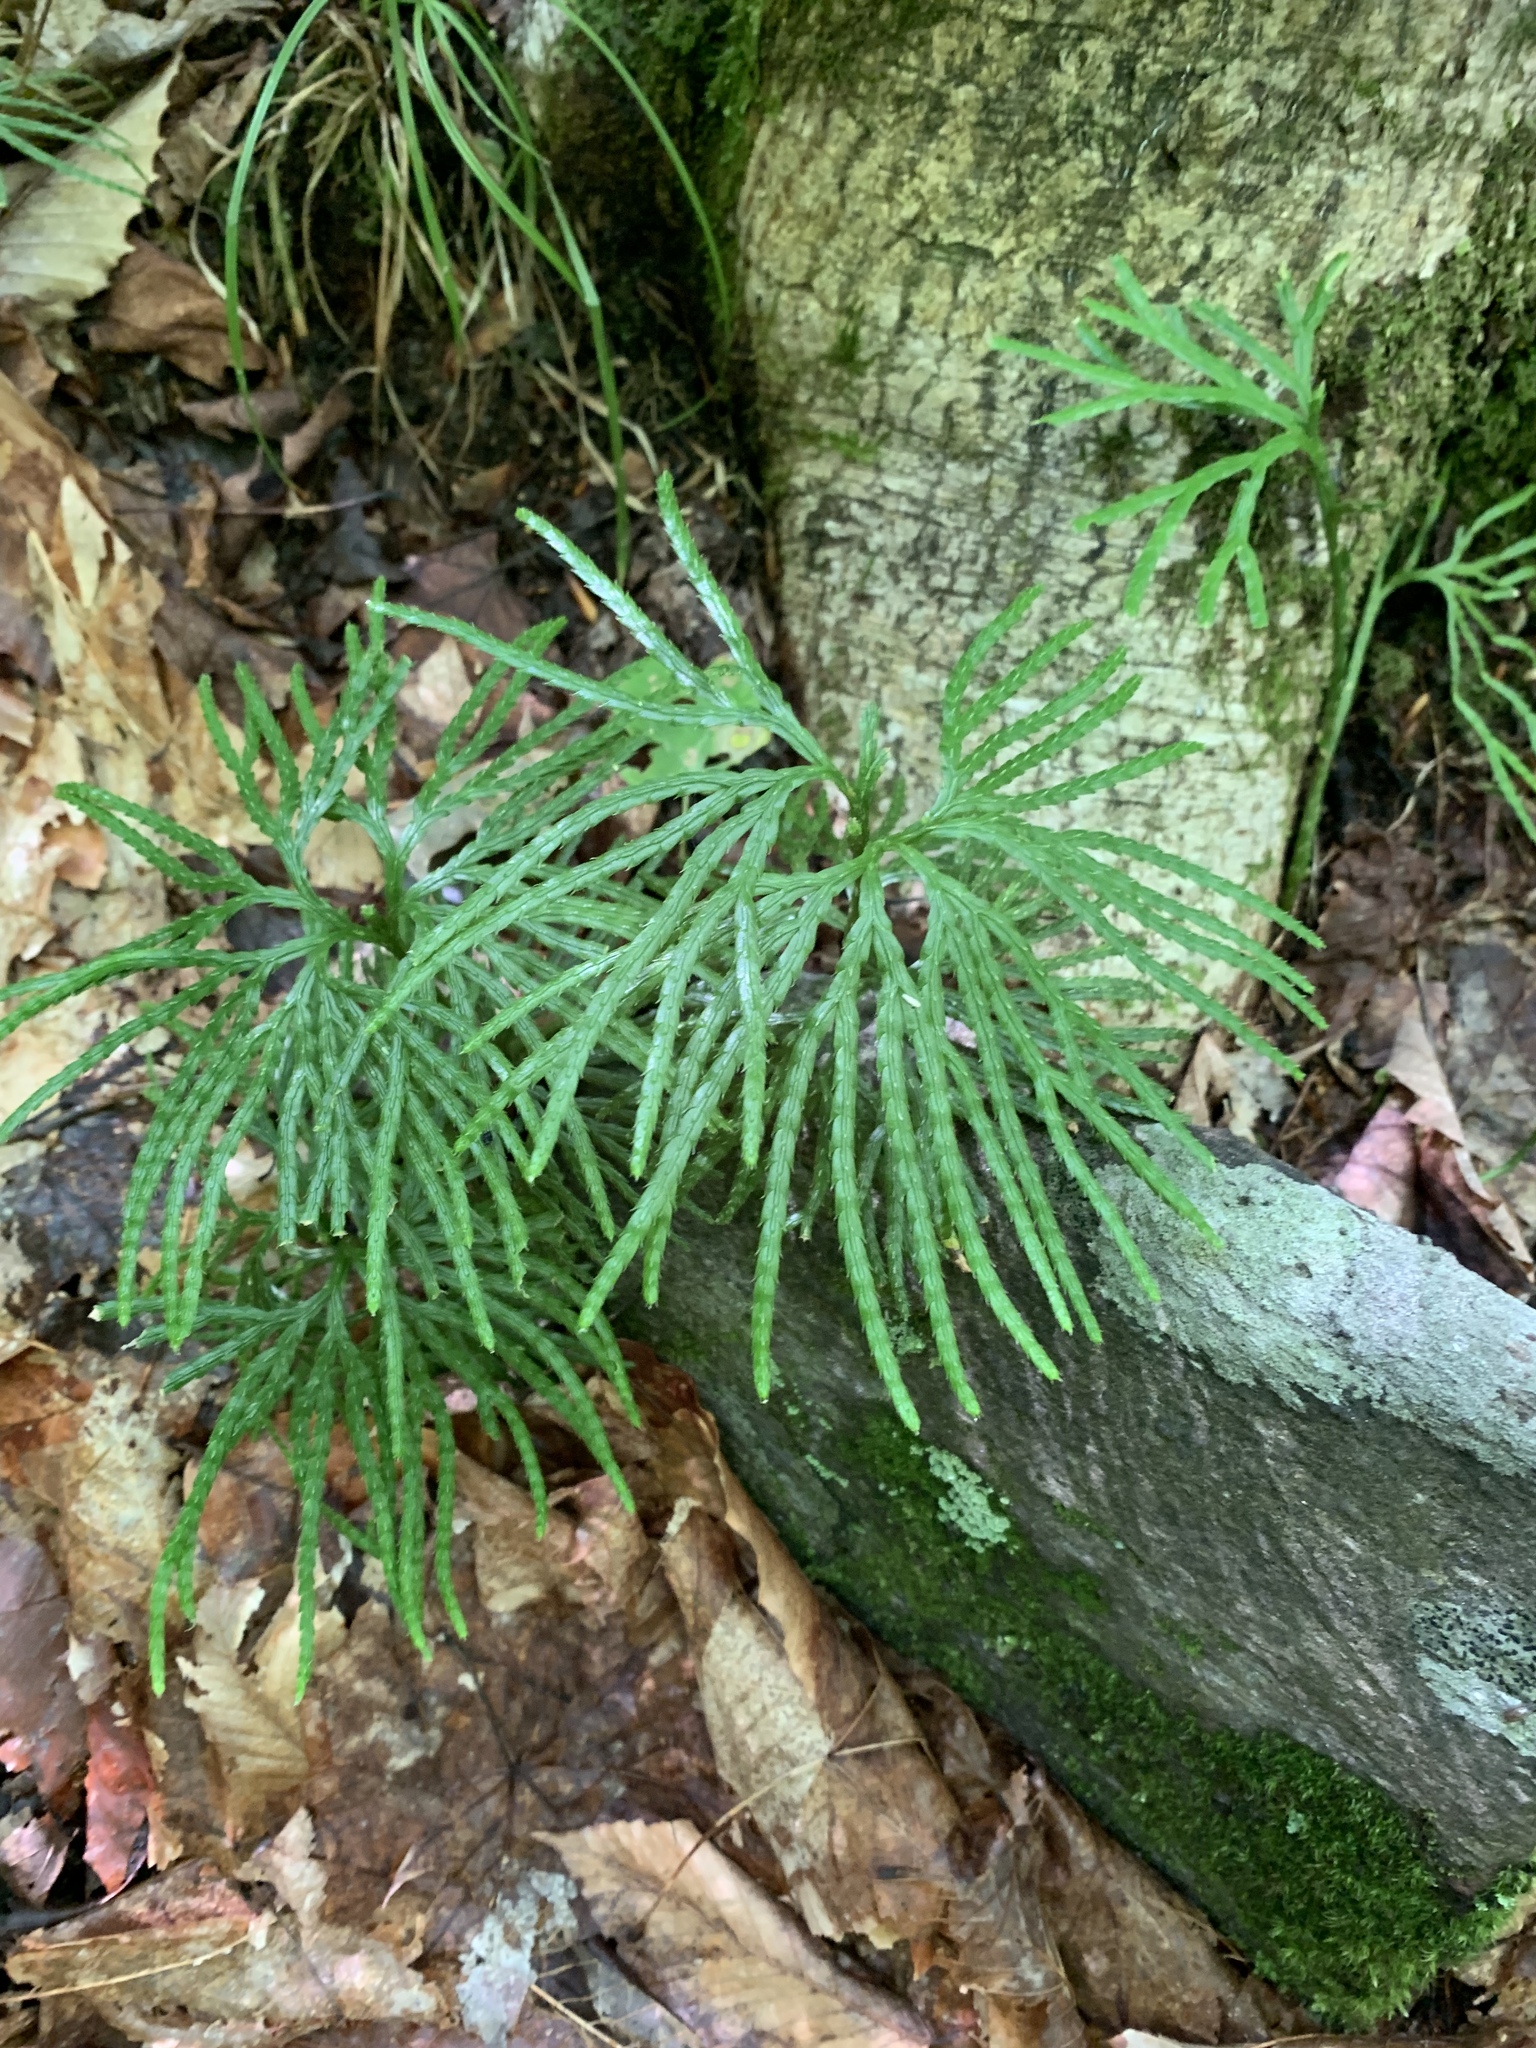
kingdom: Plantae
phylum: Tracheophyta
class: Lycopodiopsida
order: Lycopodiales
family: Lycopodiaceae
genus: Diphasiastrum
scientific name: Diphasiastrum digitatum
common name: Southern running-pine
